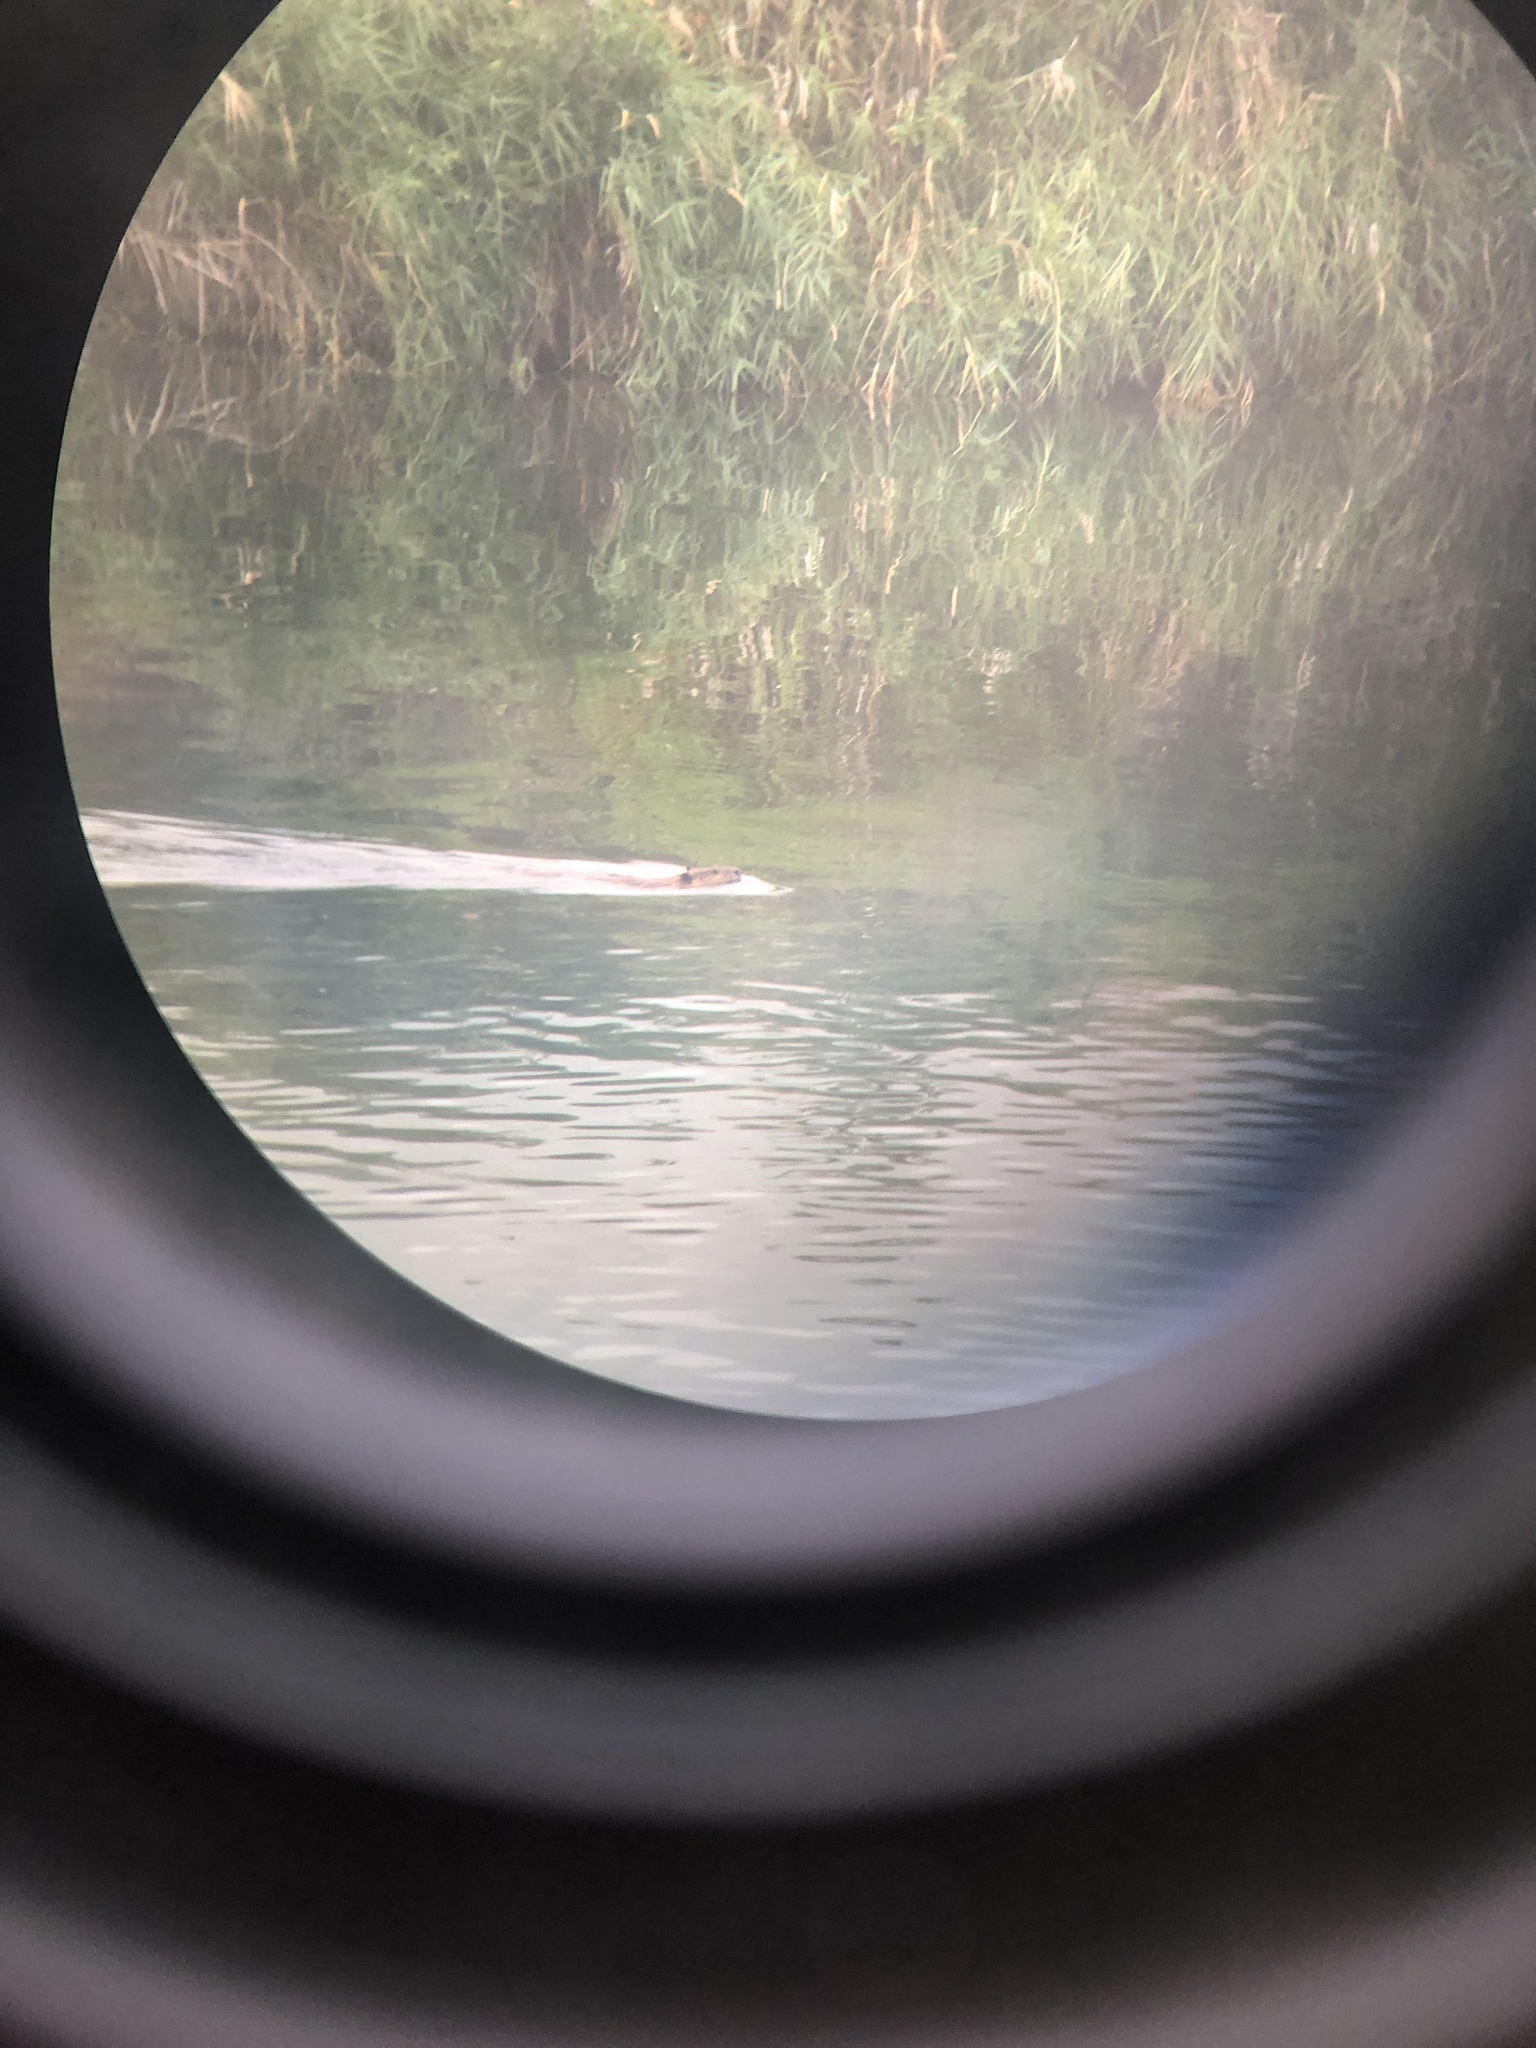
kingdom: Animalia
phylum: Chordata
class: Mammalia
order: Rodentia
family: Castoridae
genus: Castor
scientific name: Castor canadensis
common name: American beaver
